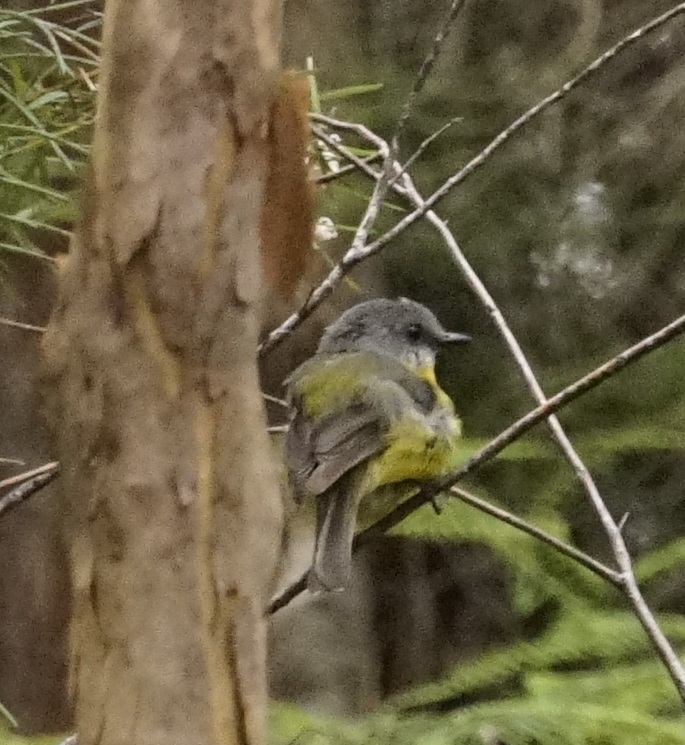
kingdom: Animalia
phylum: Chordata
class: Aves
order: Passeriformes
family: Petroicidae
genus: Eopsaltria
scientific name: Eopsaltria australis
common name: Eastern yellow robin
